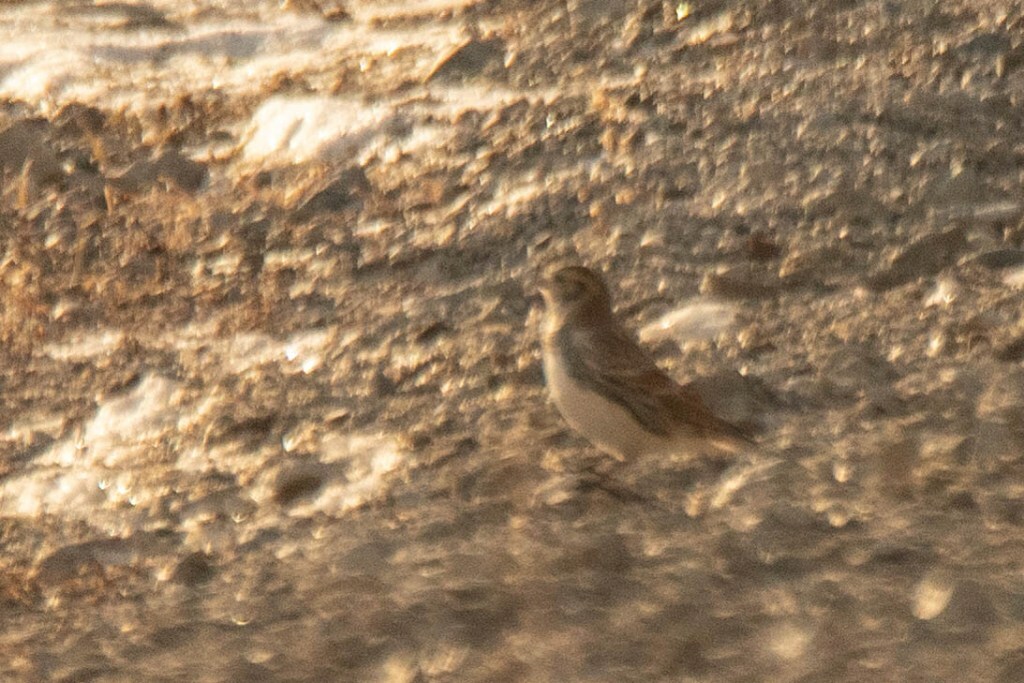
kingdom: Animalia
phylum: Chordata
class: Aves
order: Passeriformes
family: Calcariidae
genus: Calcarius
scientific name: Calcarius lapponicus
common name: Lapland longspur
